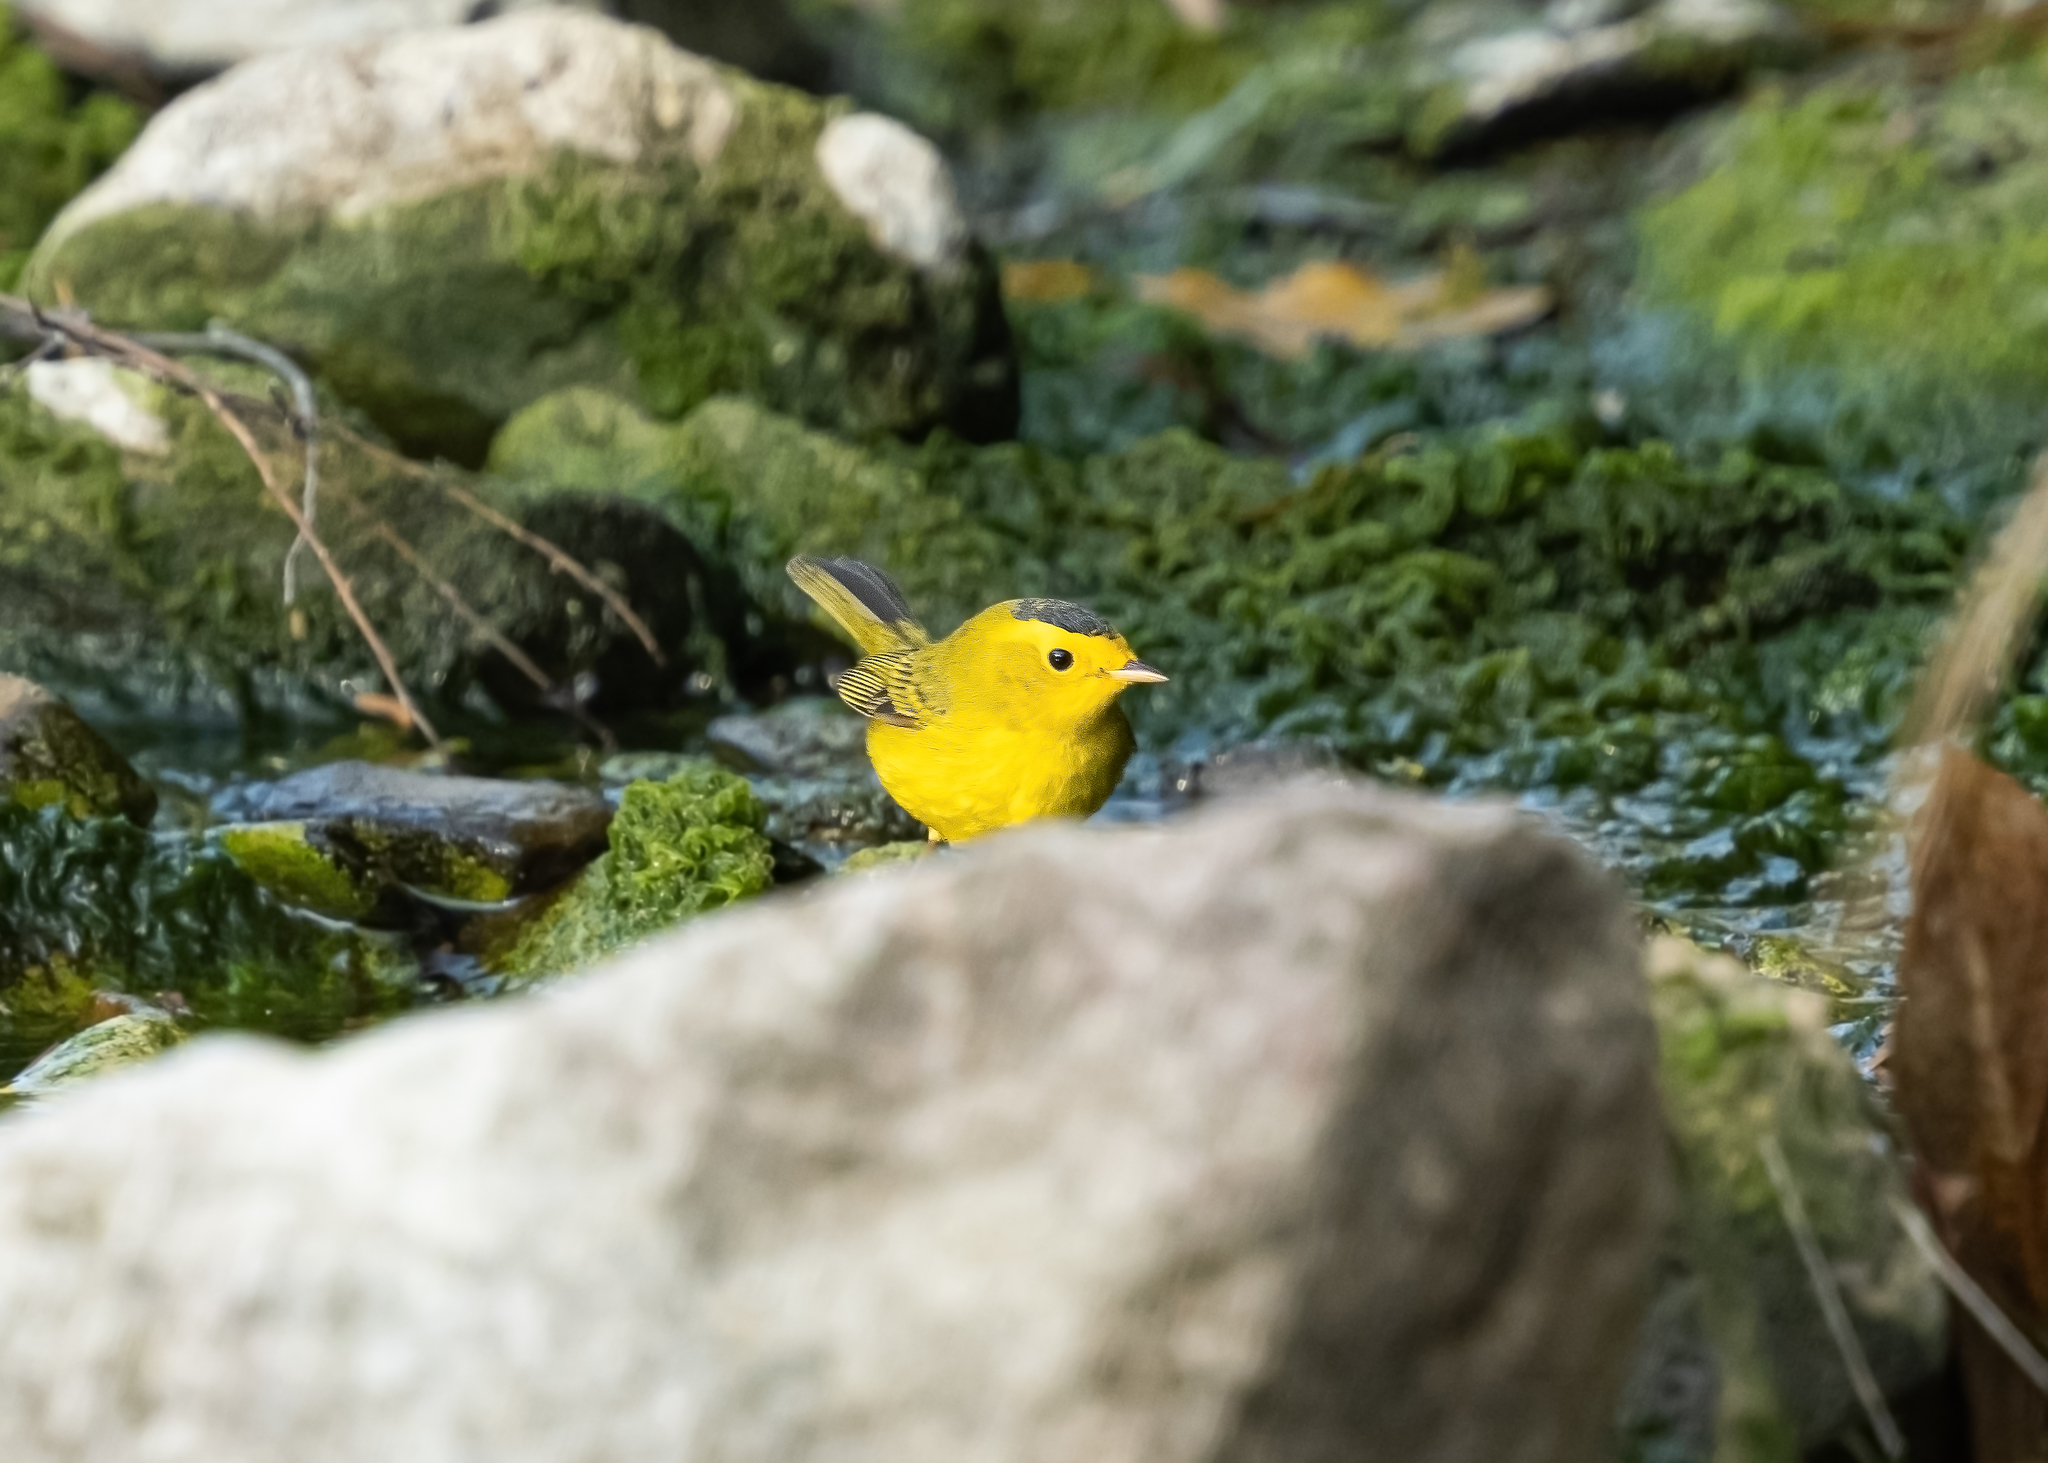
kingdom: Animalia
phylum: Chordata
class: Aves
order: Passeriformes
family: Parulidae
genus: Cardellina
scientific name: Cardellina pusilla
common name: Wilson's warbler
